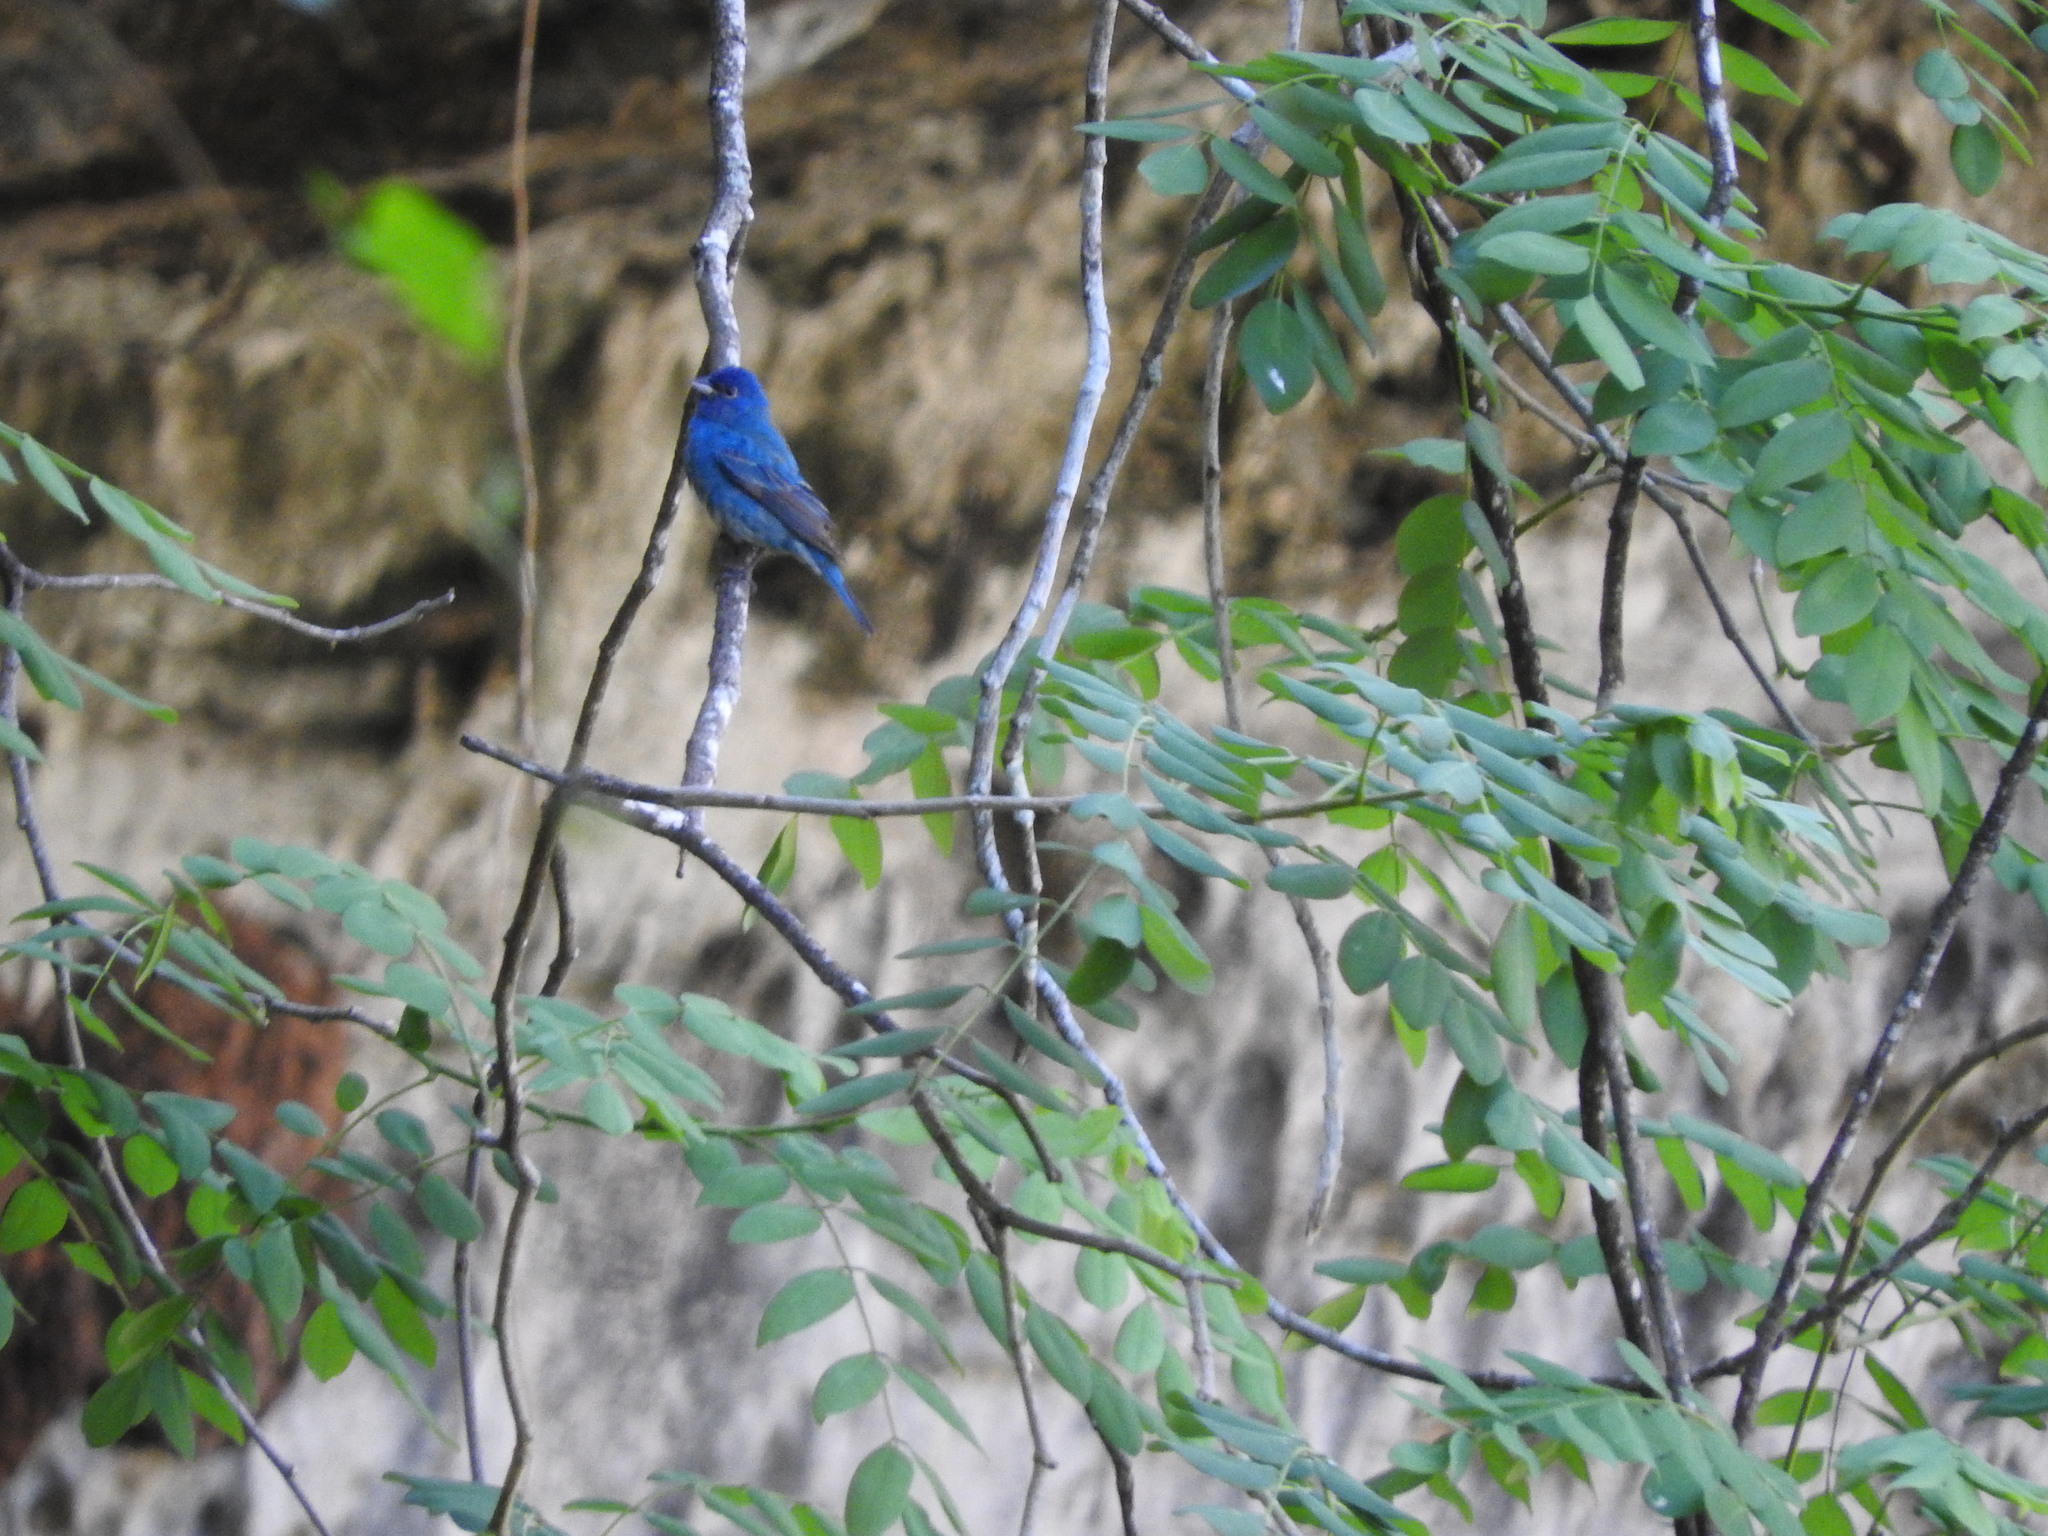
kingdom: Animalia
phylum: Chordata
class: Aves
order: Passeriformes
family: Cardinalidae
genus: Passerina
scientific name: Passerina cyanea
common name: Indigo bunting
